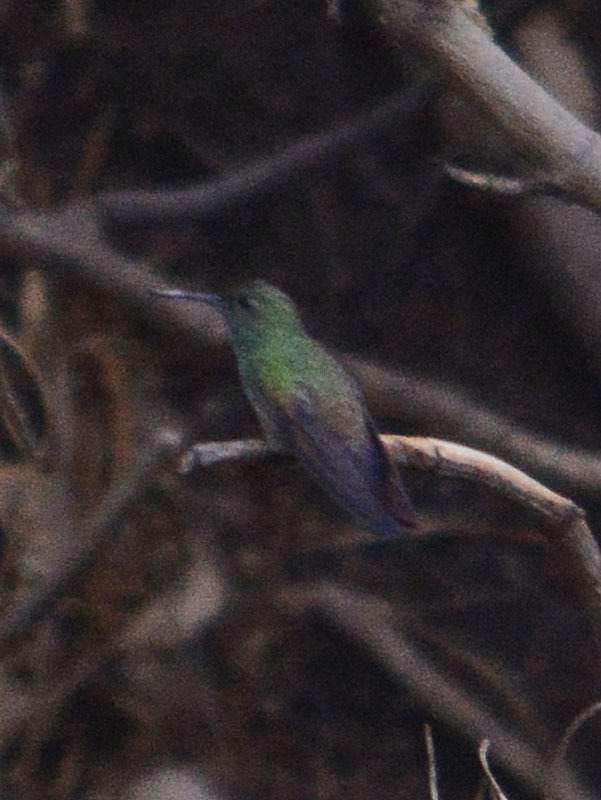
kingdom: Animalia
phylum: Chordata
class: Aves
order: Apodiformes
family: Trochilidae
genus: Saucerottia
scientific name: Saucerottia beryllina
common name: Berylline hummingbird
